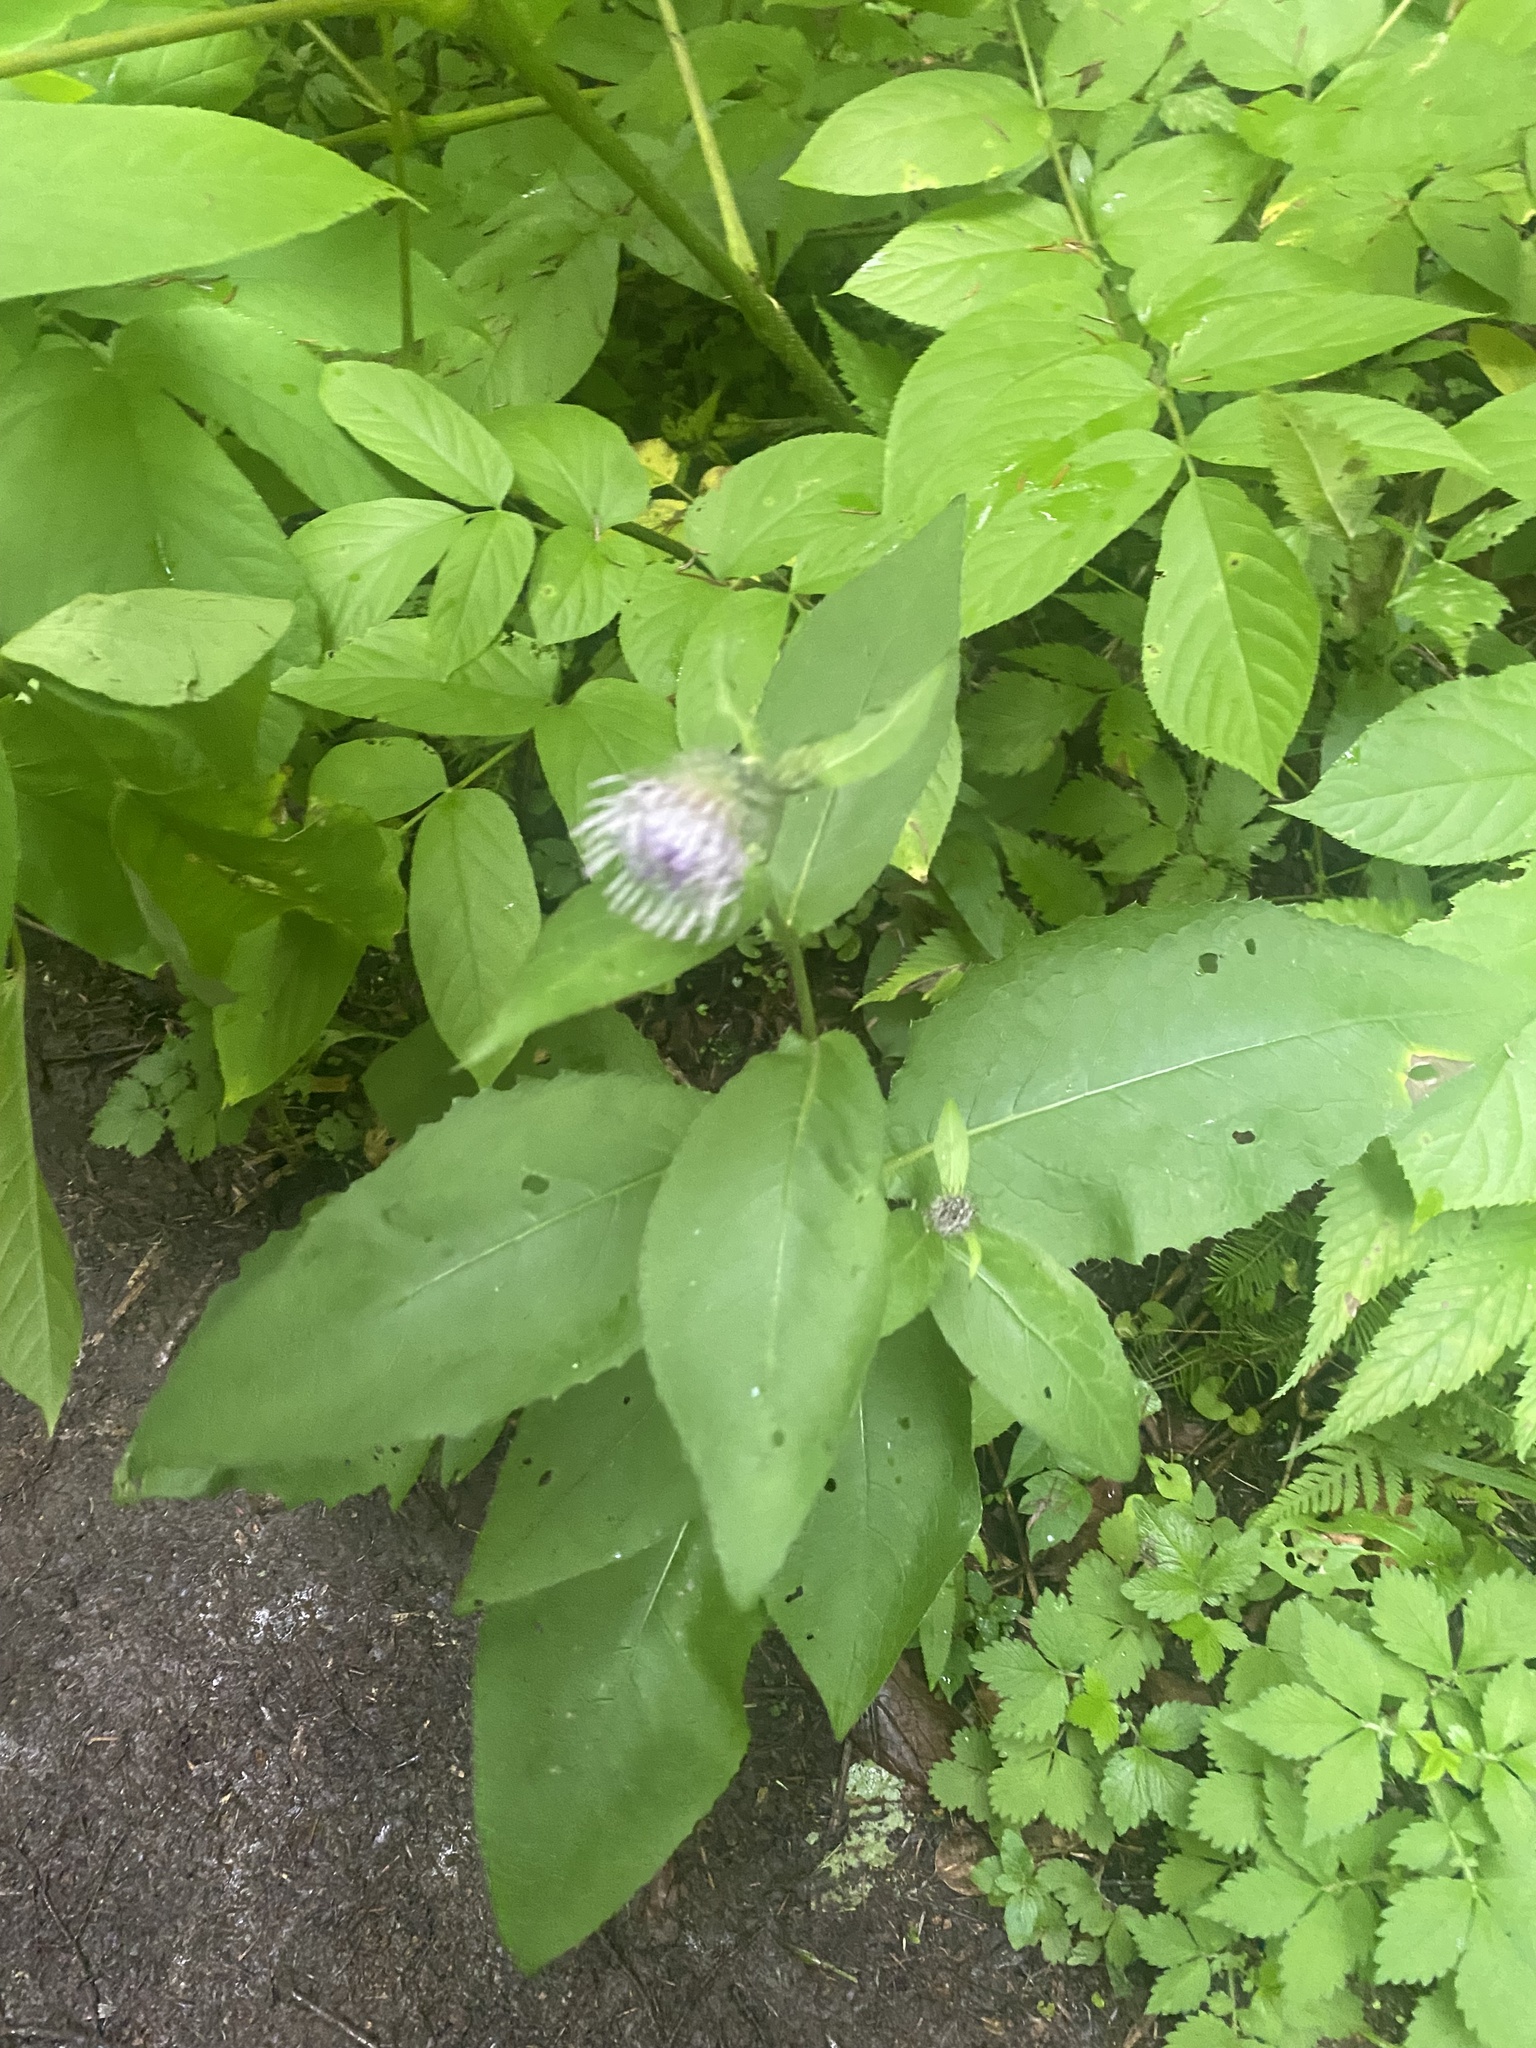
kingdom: Plantae
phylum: Tracheophyta
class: Magnoliopsida
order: Asterales
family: Asteraceae
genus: Cirsium
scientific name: Cirsium kamtschaticum
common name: Kamchatka thistle
